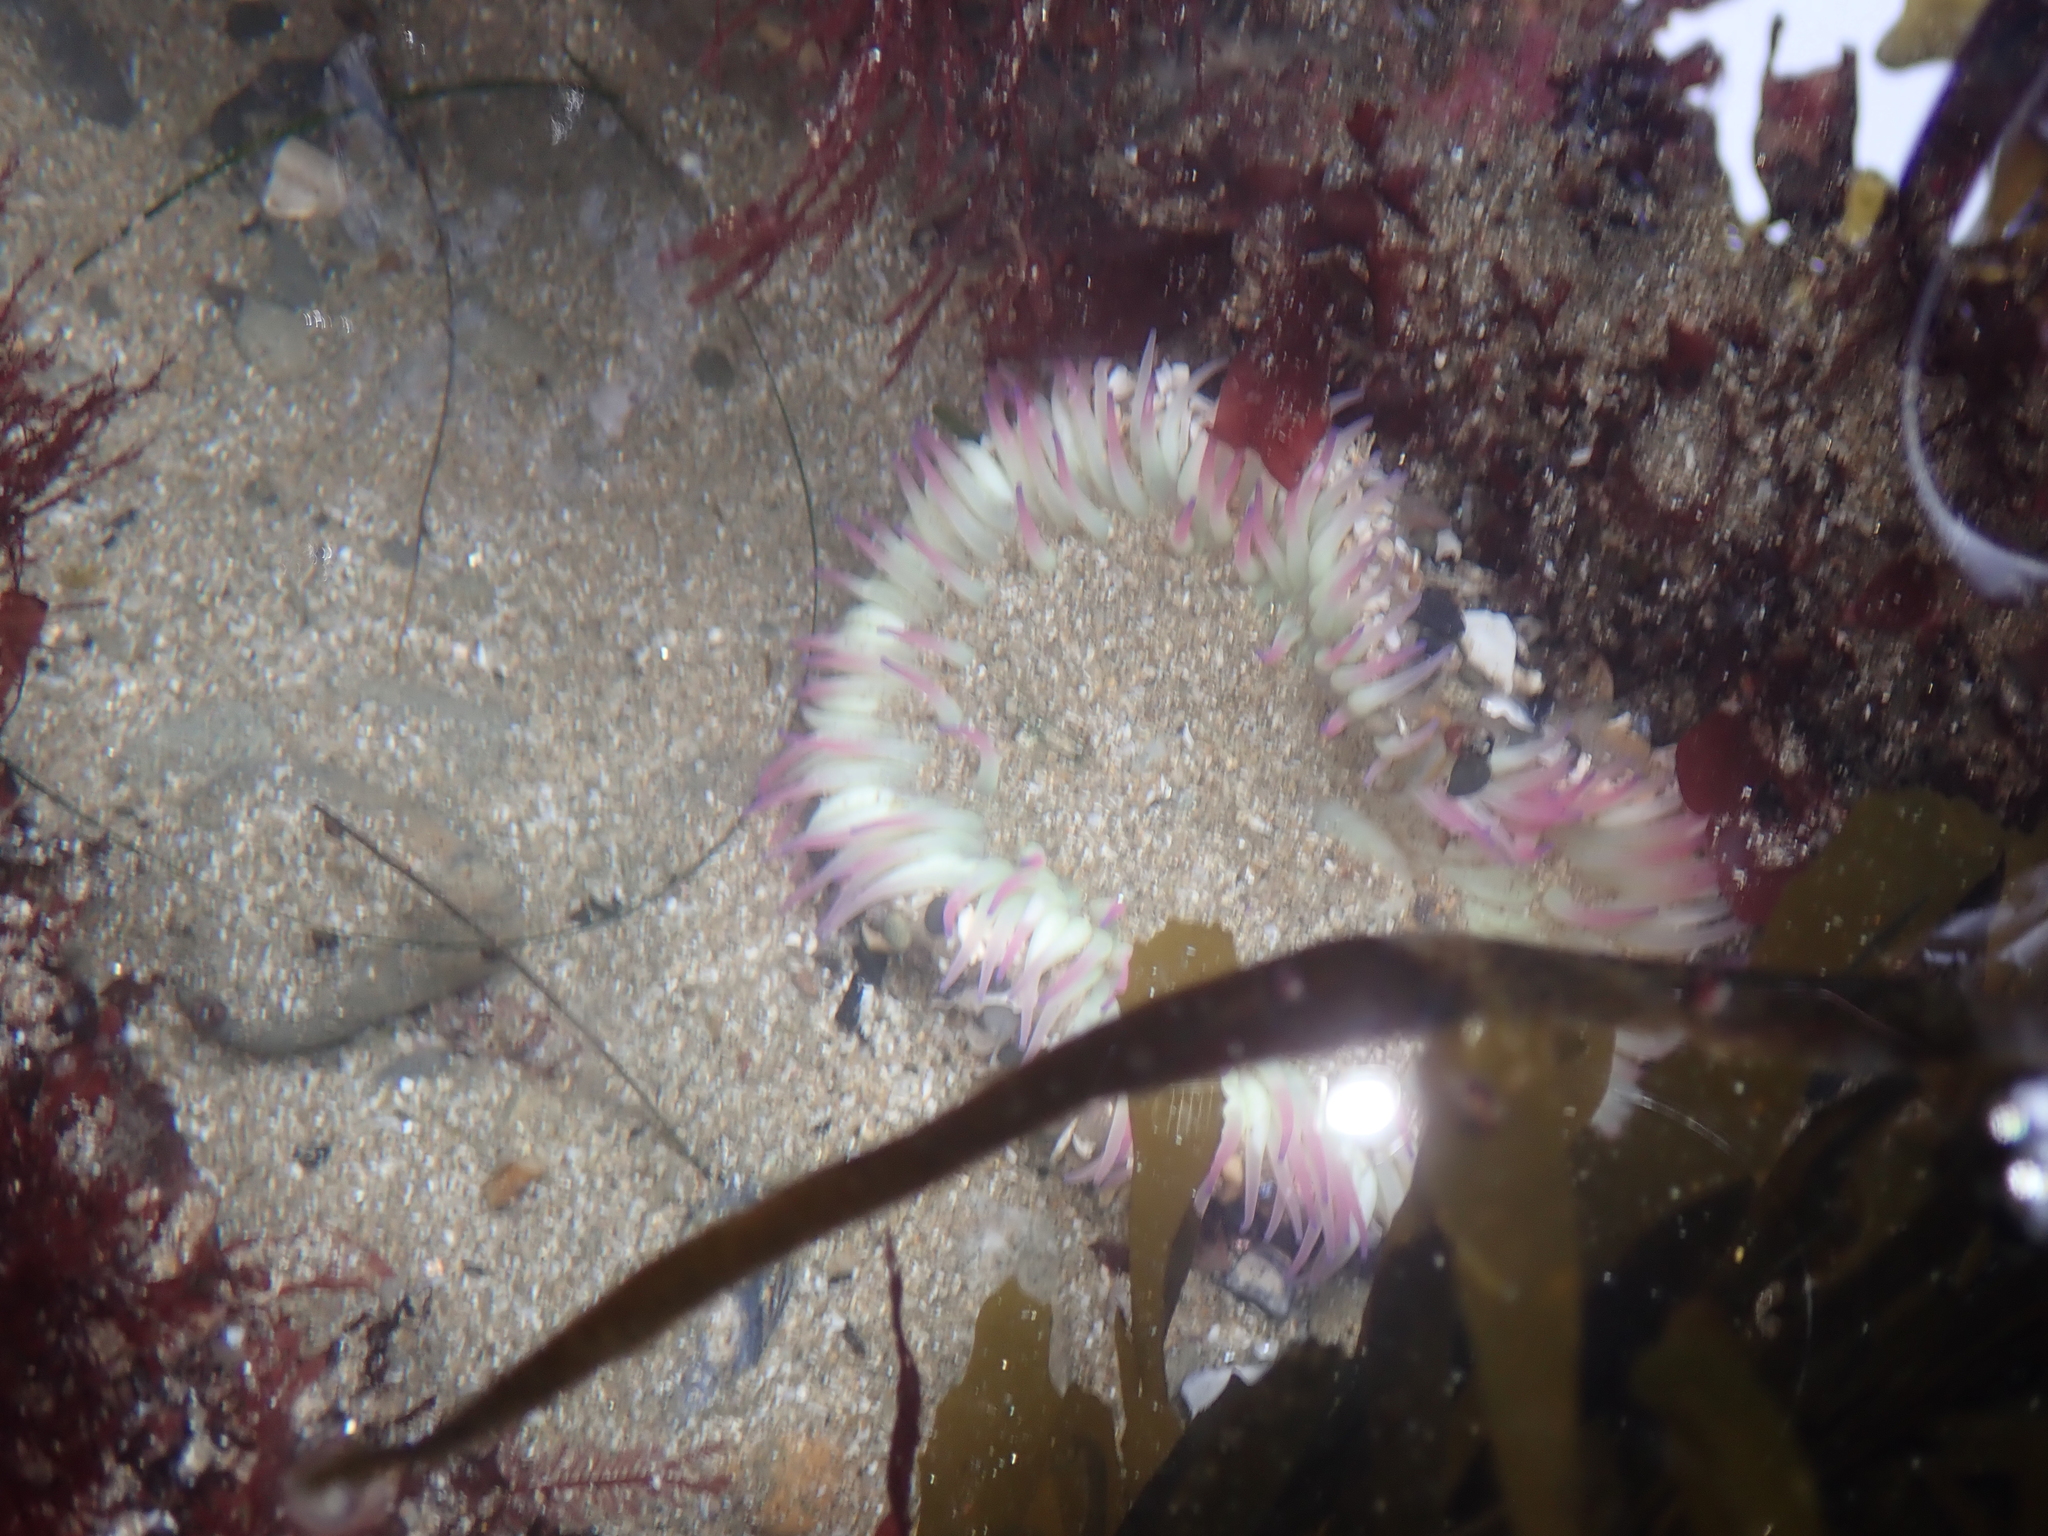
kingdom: Animalia
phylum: Cnidaria
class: Anthozoa
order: Actiniaria
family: Actiniidae
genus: Anthopleura
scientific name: Anthopleura sola
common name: Sun anemone
